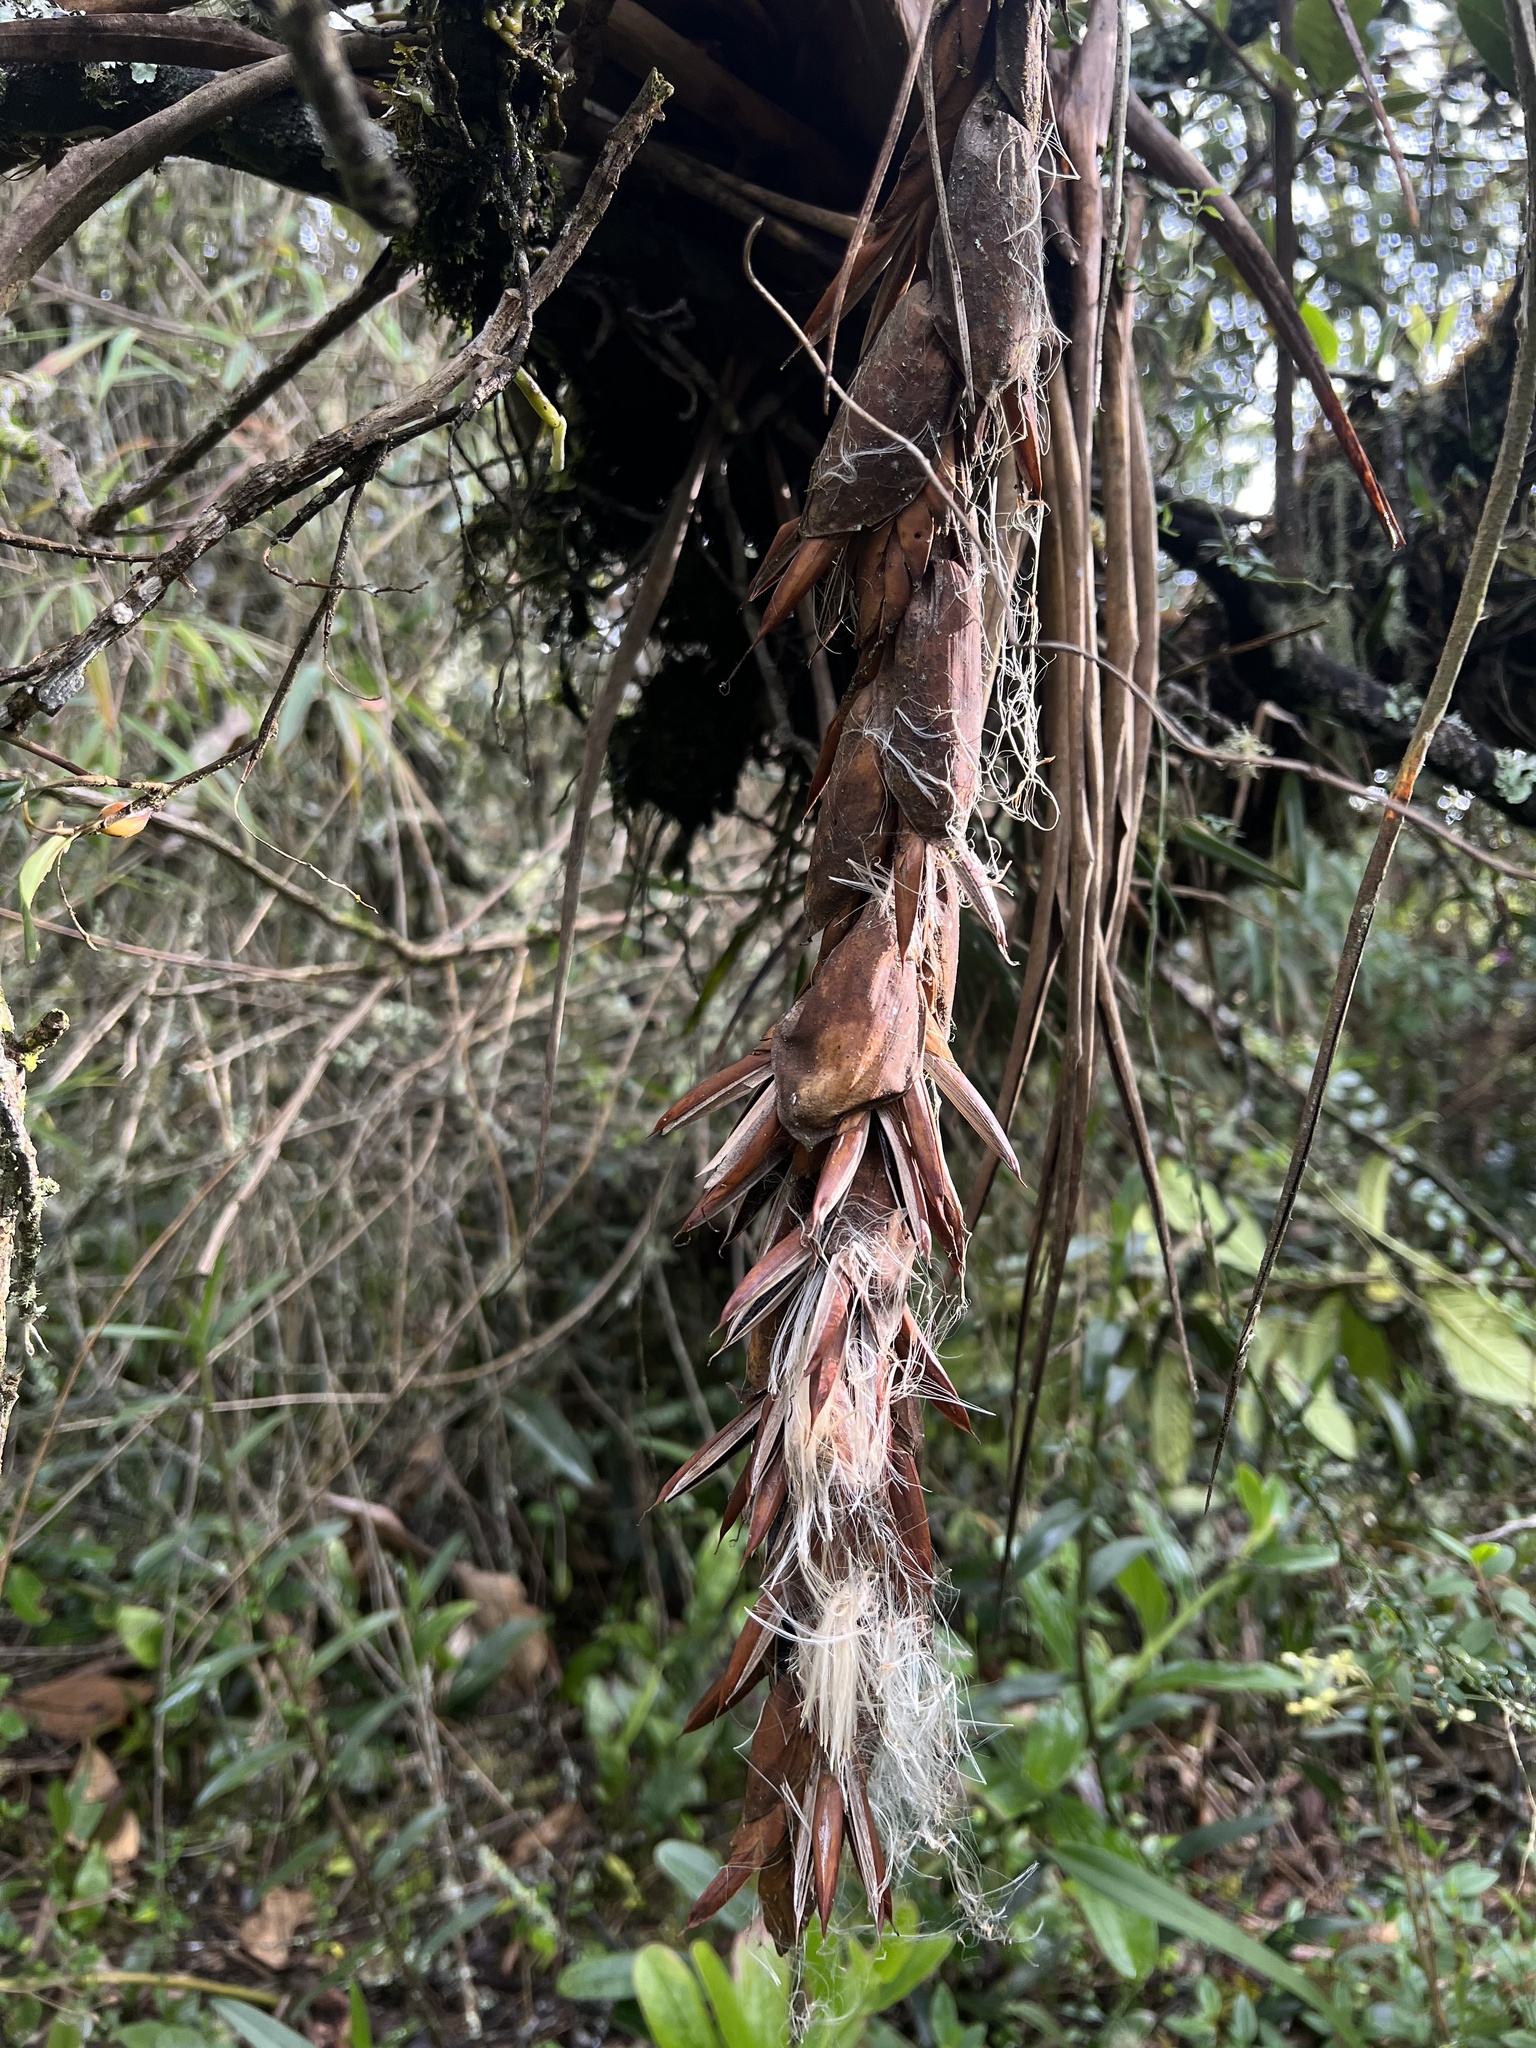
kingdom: Plantae
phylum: Tracheophyta
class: Liliopsida
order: Poales
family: Bromeliaceae
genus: Vriesea
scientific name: Vriesea tequendamae
